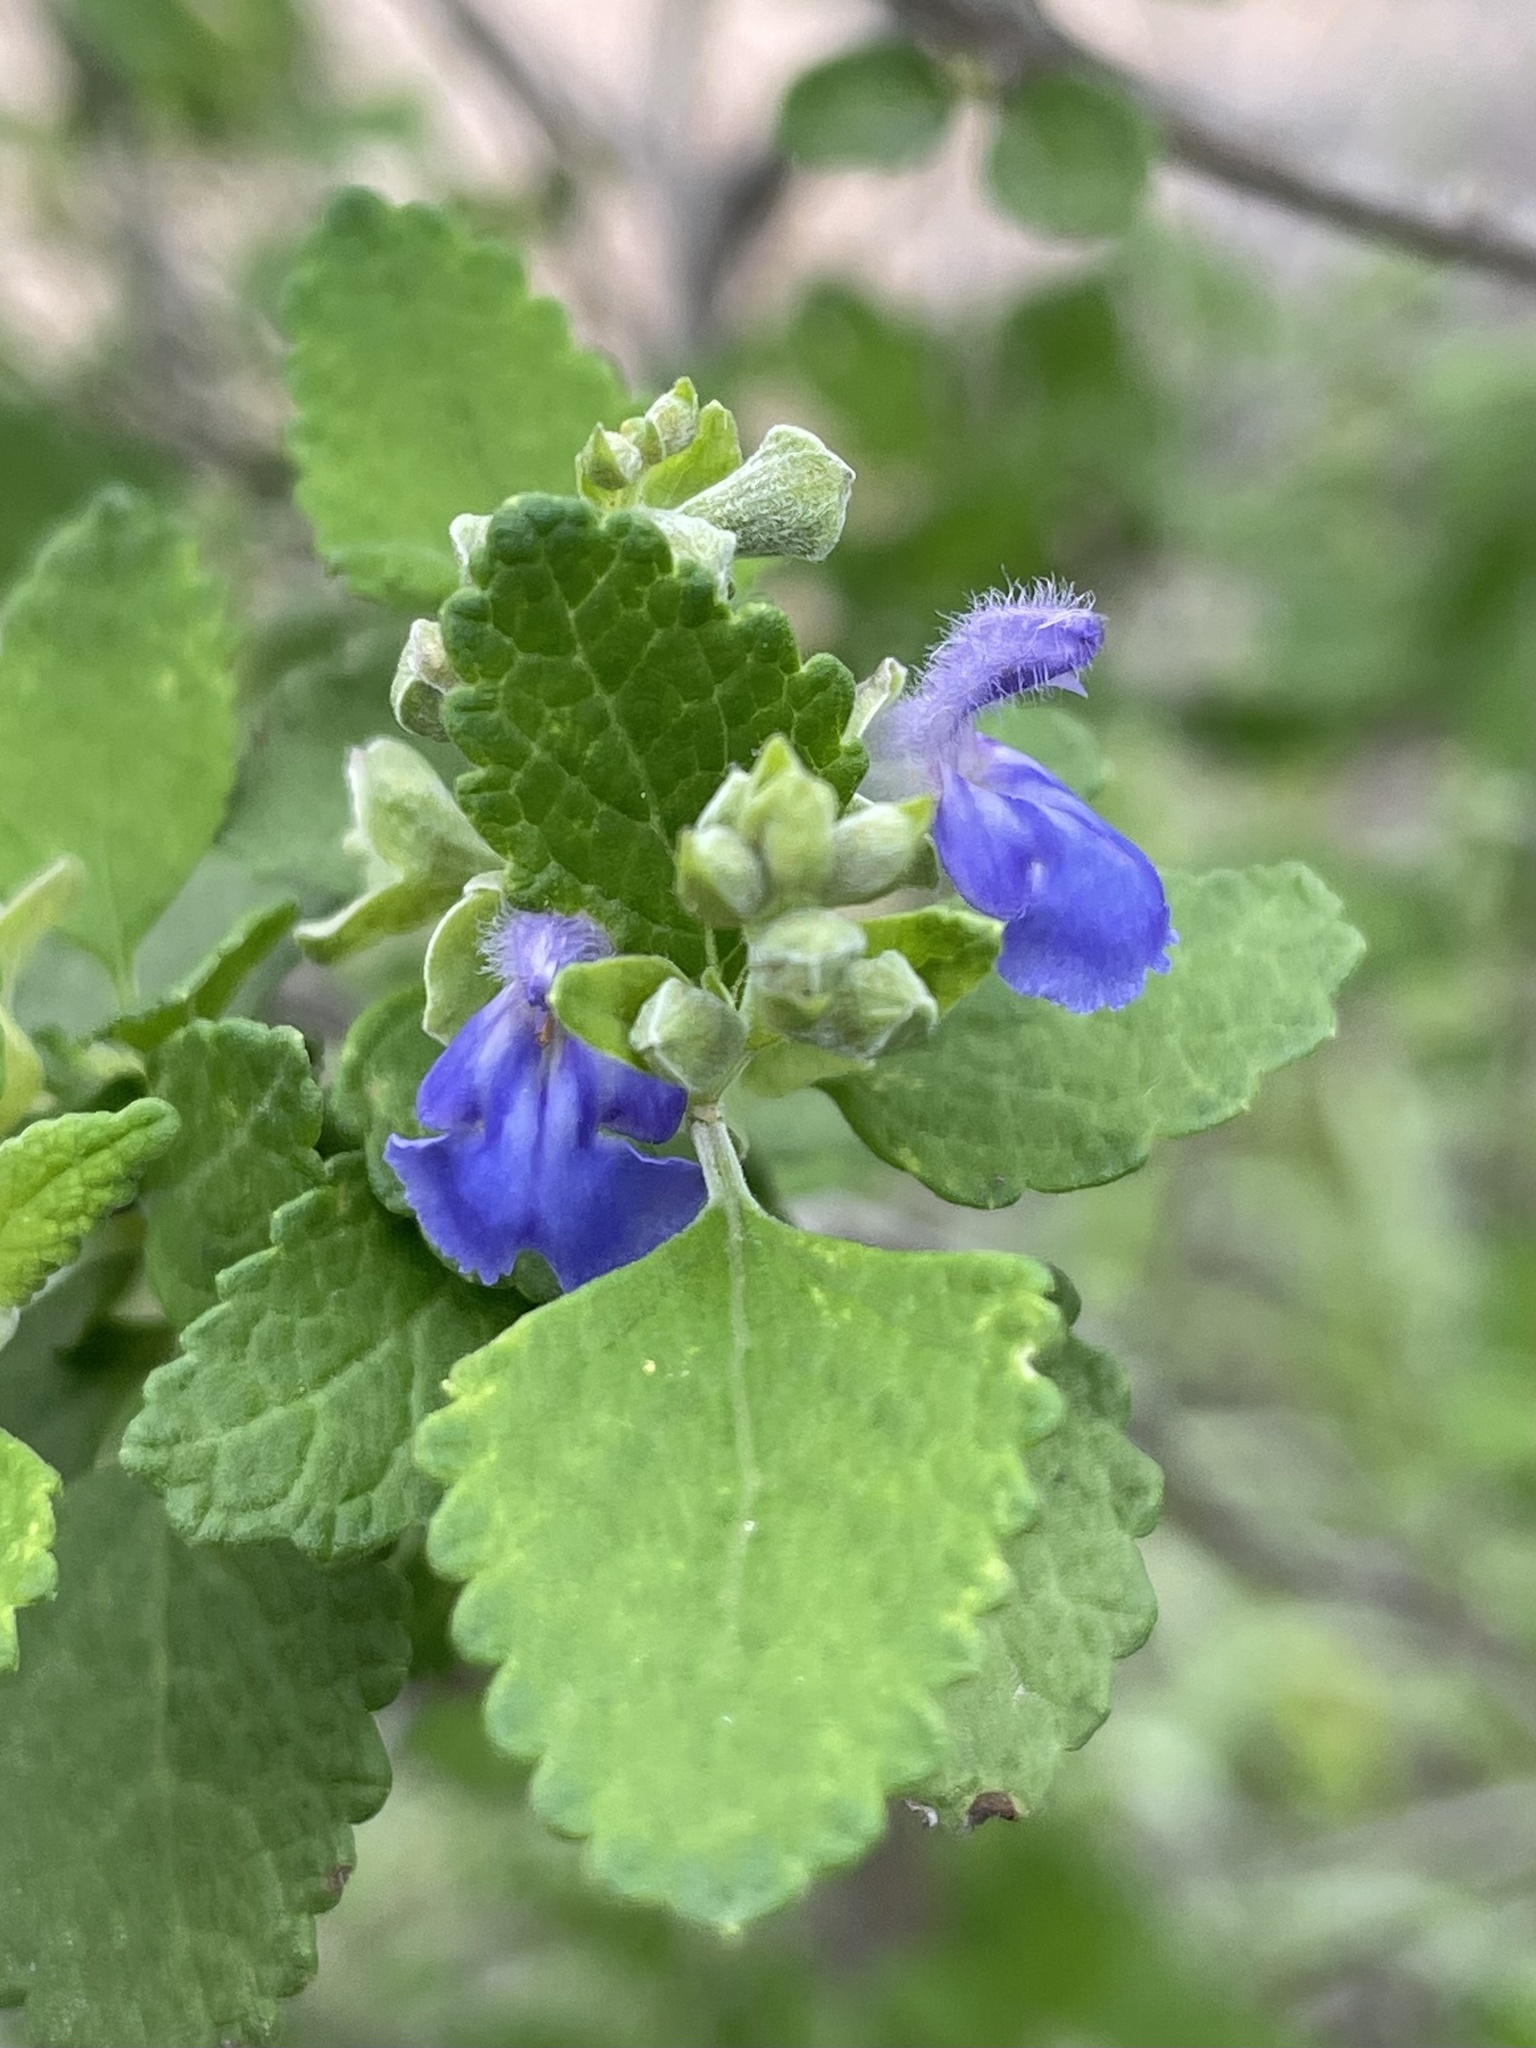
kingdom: Plantae
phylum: Tracheophyta
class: Magnoliopsida
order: Lamiales
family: Lamiaceae
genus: Salvia
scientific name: Salvia ballotiflora
